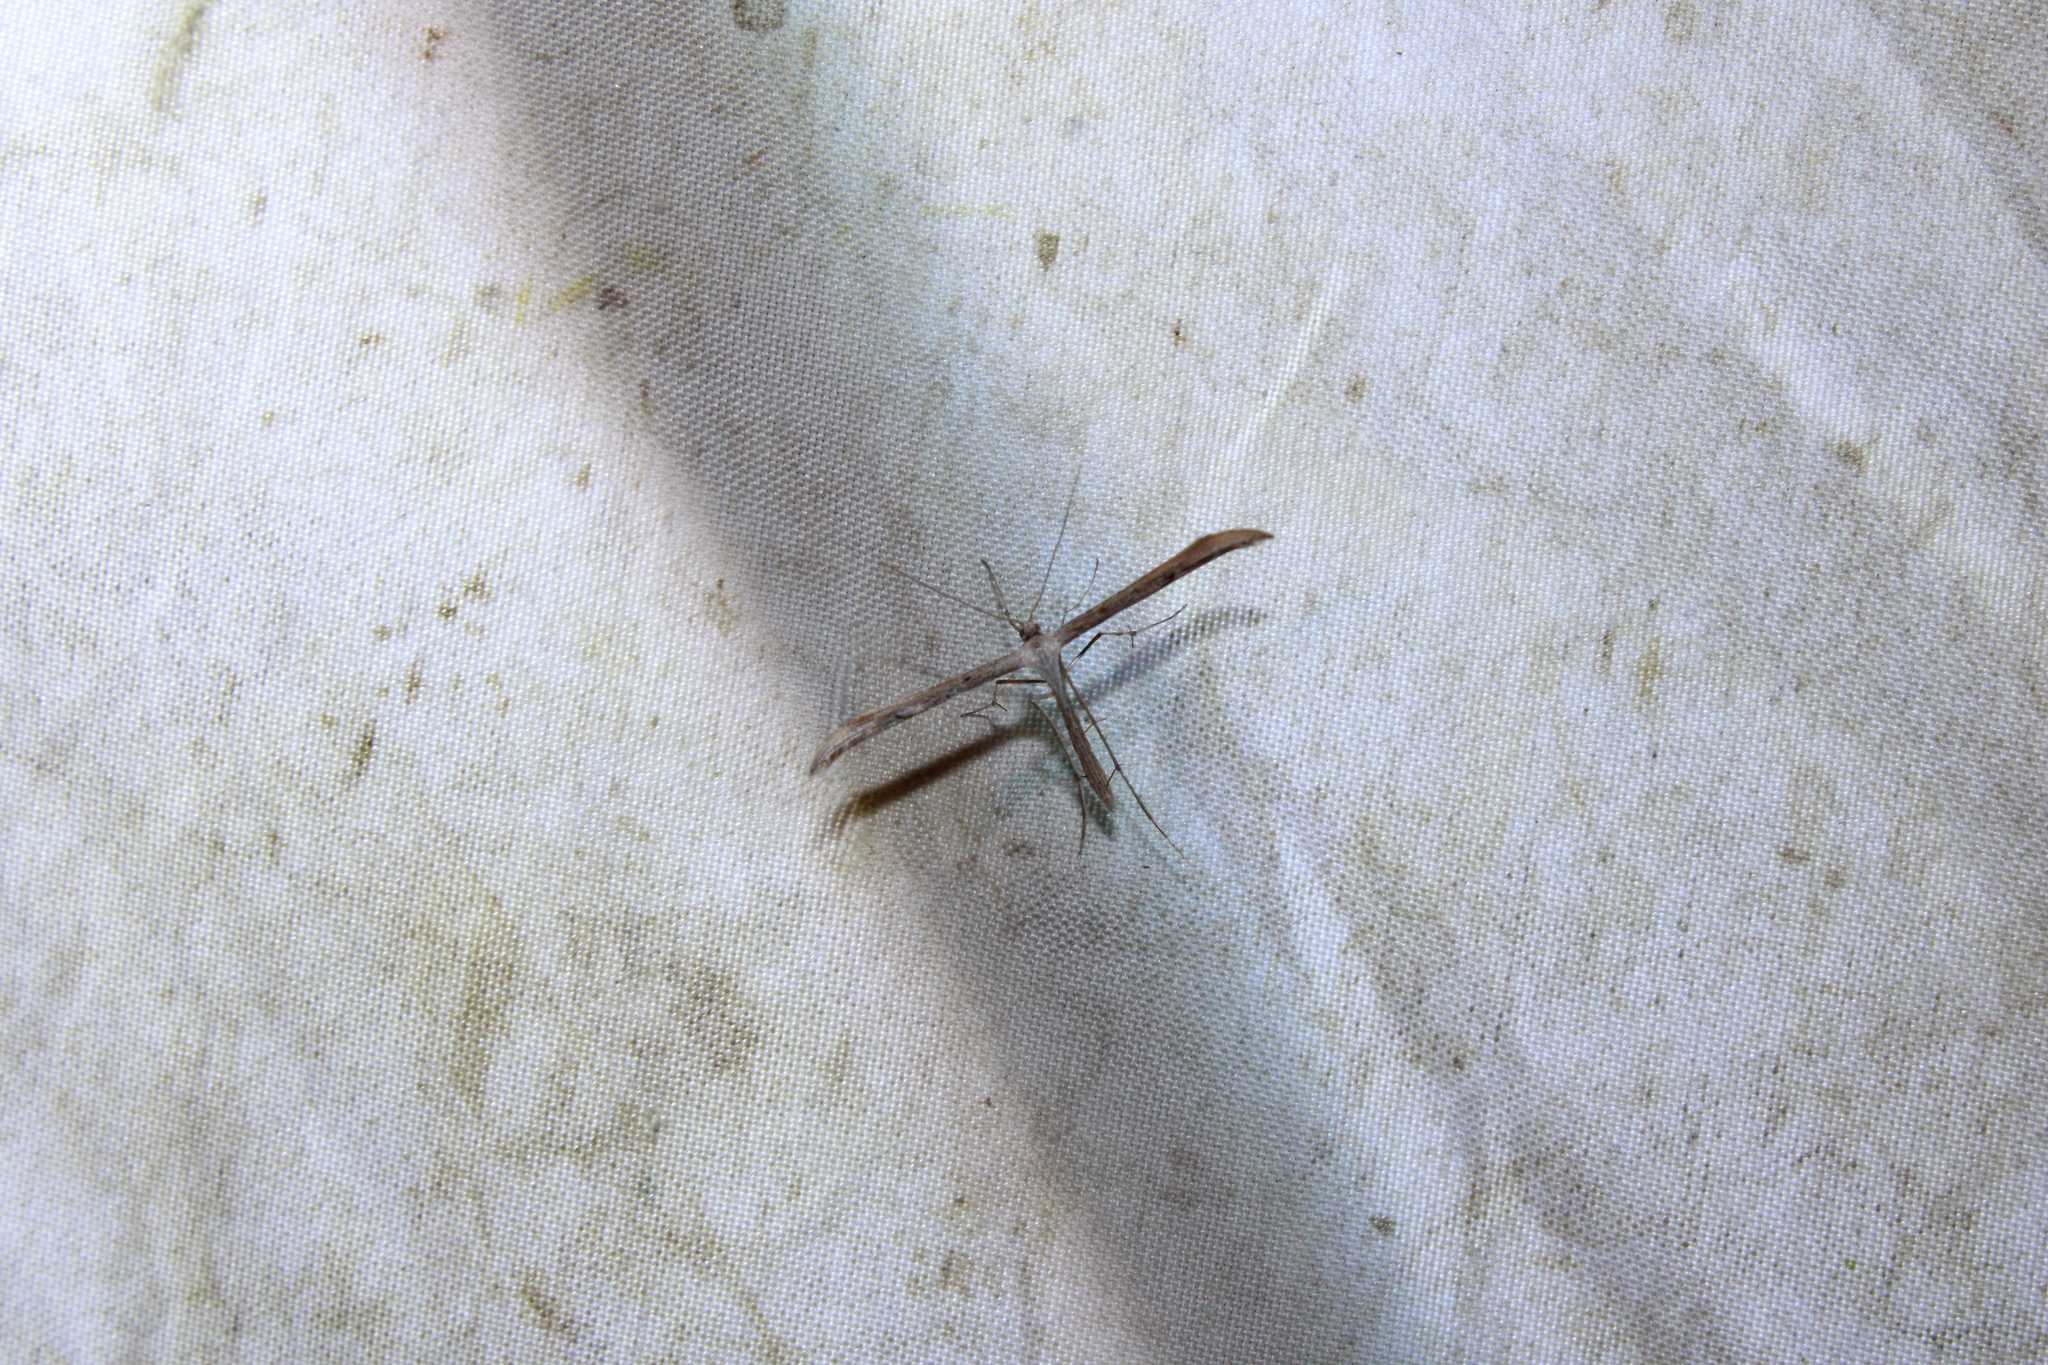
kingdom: Animalia
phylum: Arthropoda
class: Insecta
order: Lepidoptera
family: Pterophoridae
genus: Emmelina
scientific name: Emmelina monodactyla
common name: Common plume
